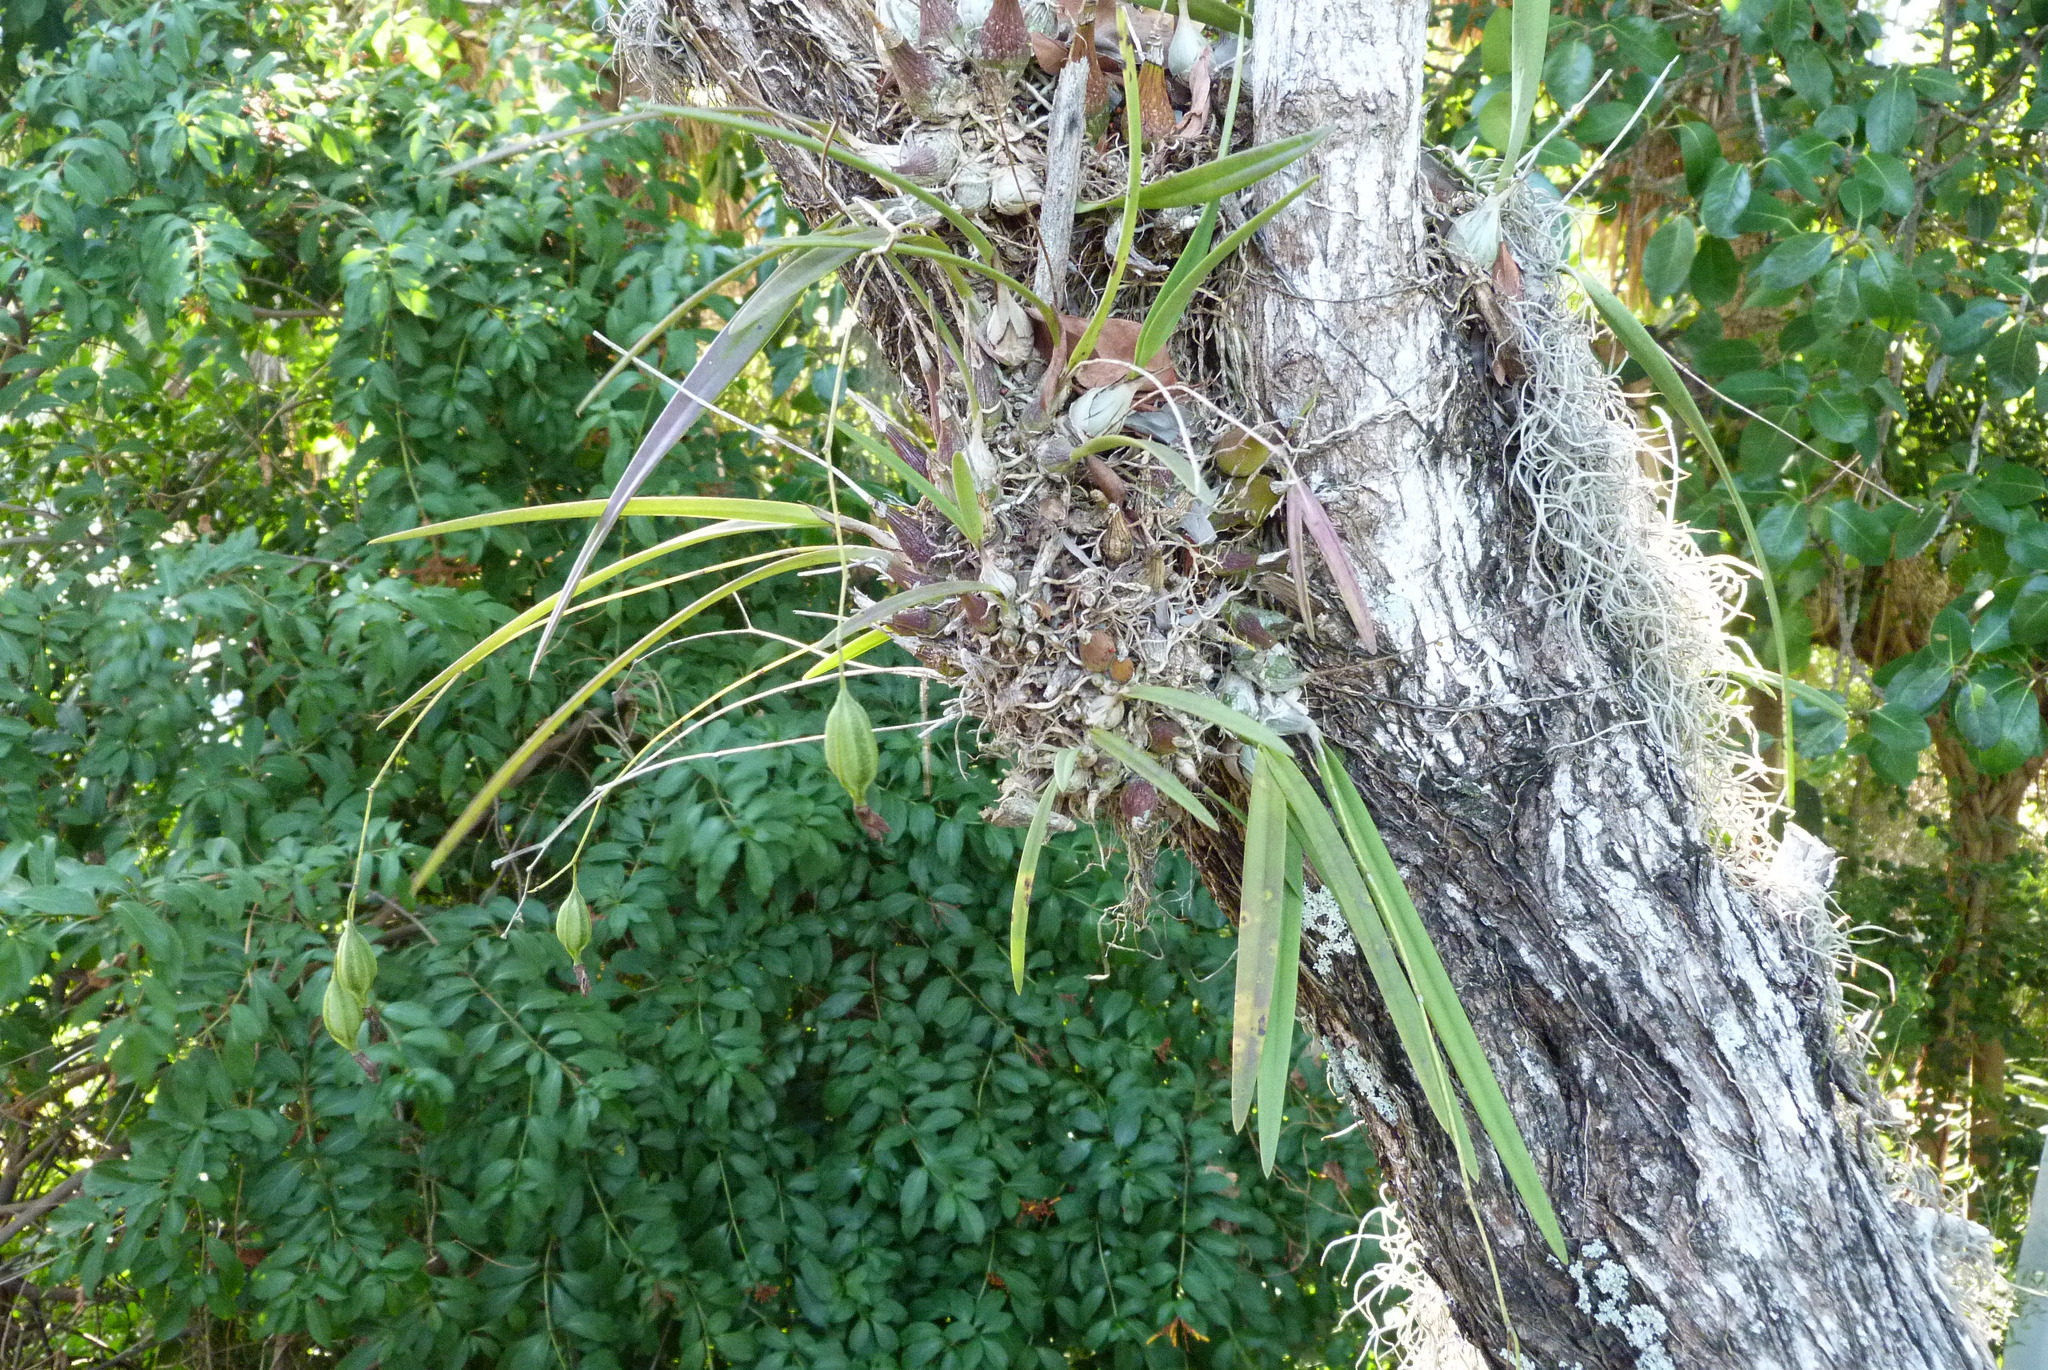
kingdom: Plantae
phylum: Tracheophyta
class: Liliopsida
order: Asparagales
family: Orchidaceae
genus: Encyclia
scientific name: Encyclia tampensis
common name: Florida butterfly orchid
